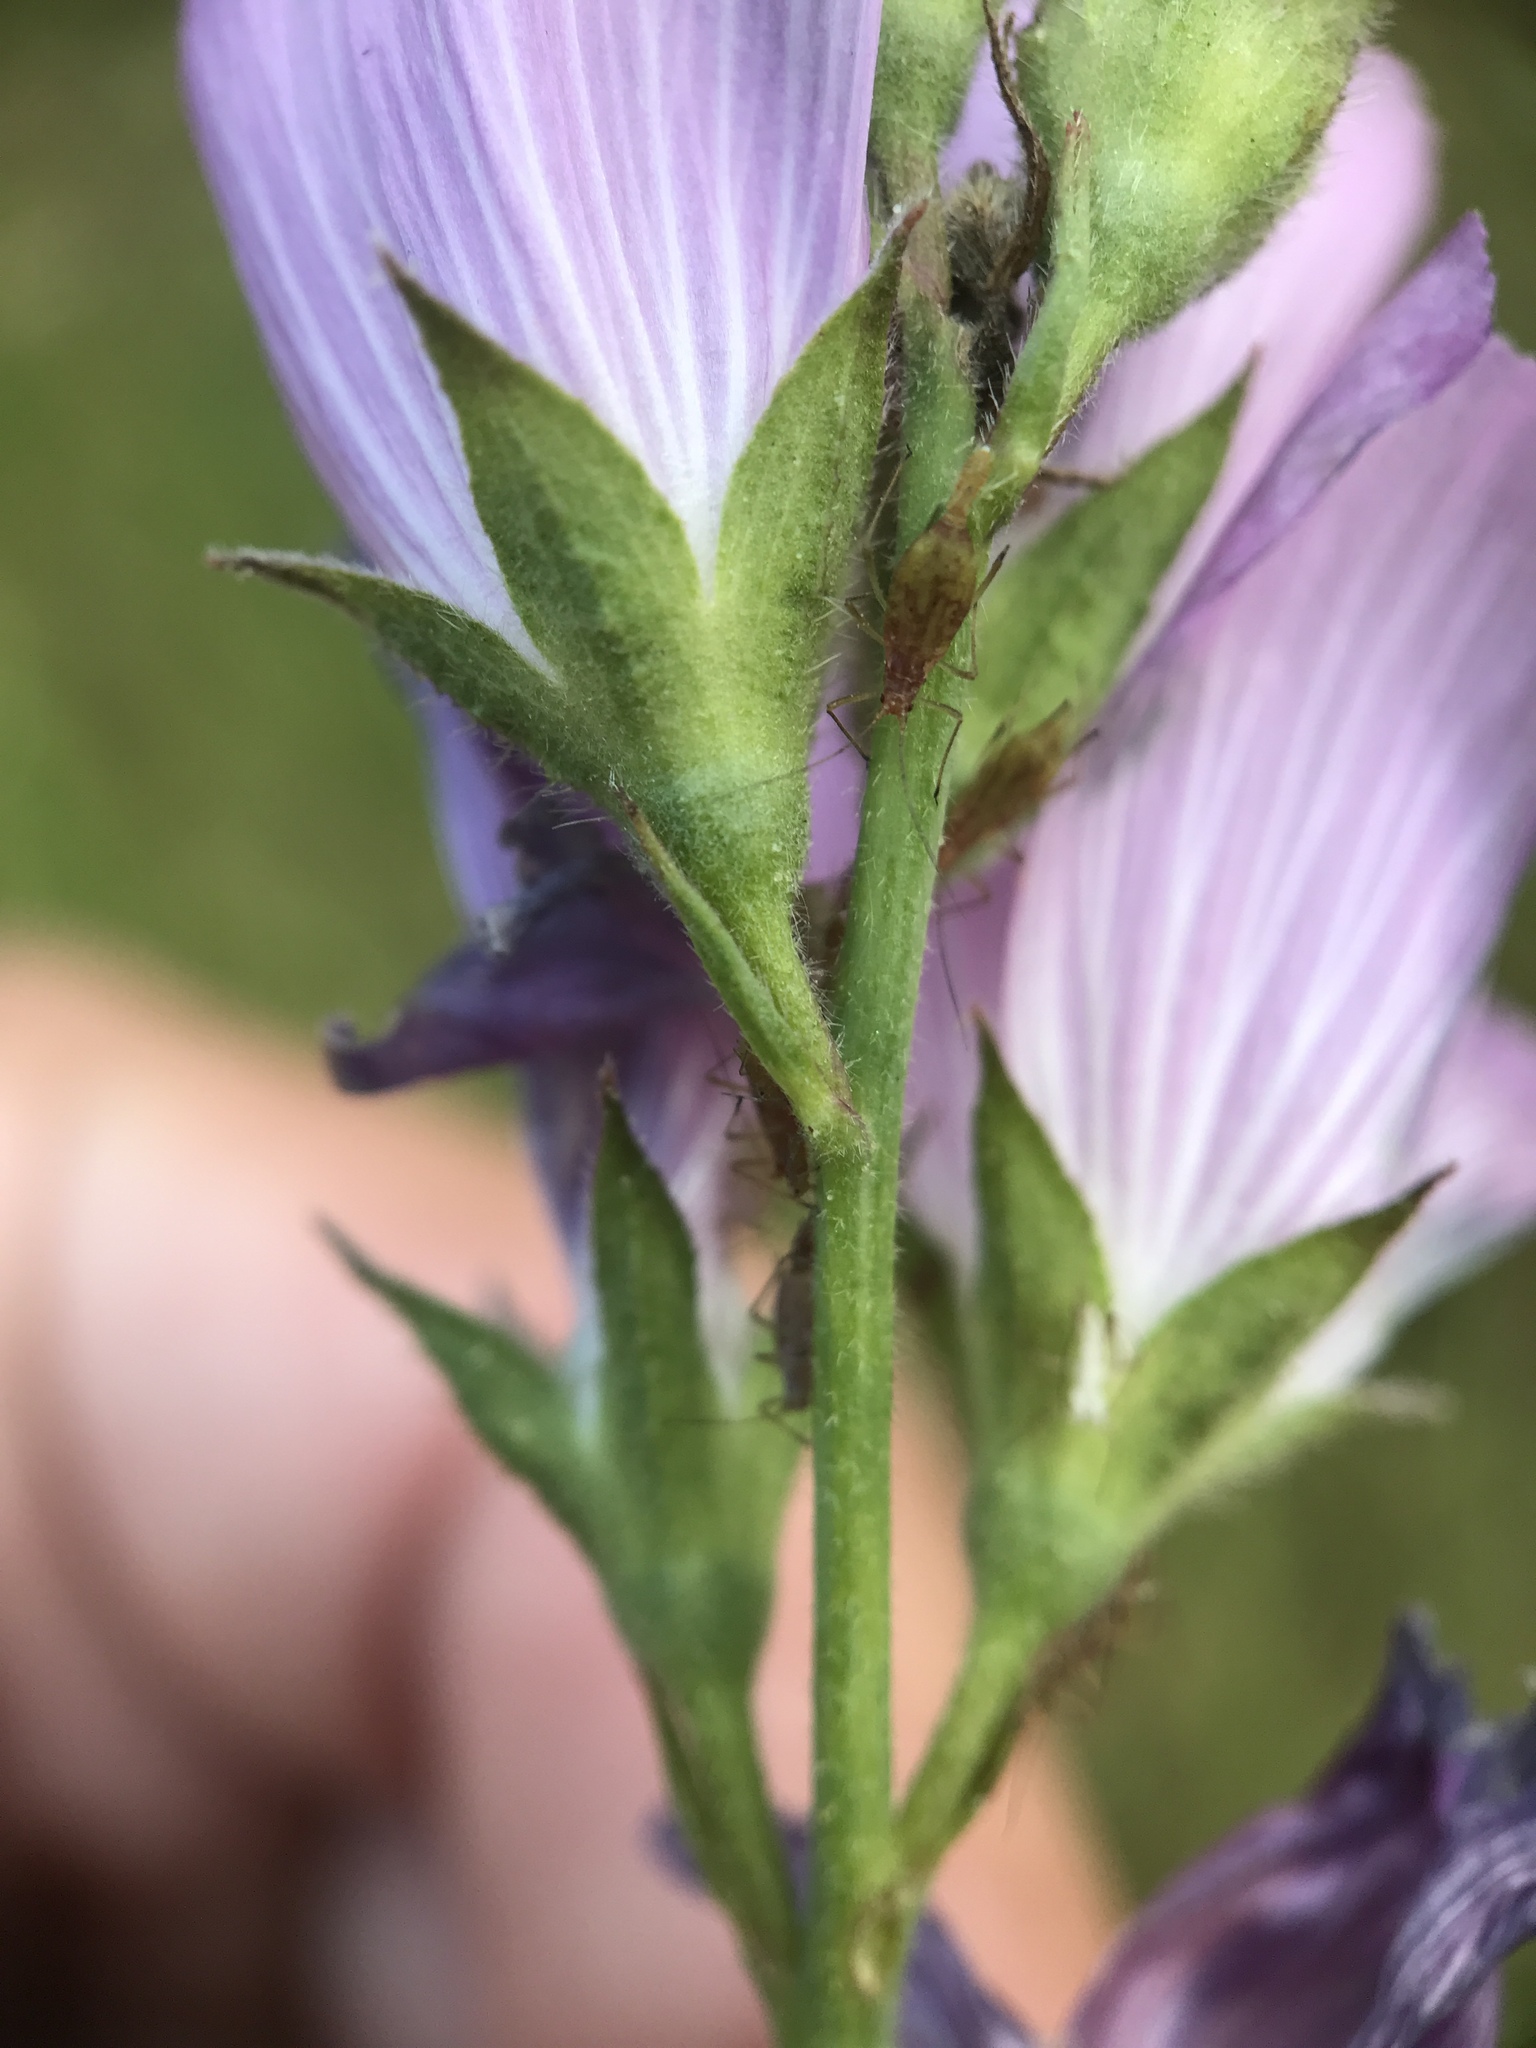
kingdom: Plantae
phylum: Tracheophyta
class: Magnoliopsida
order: Malvales
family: Malvaceae
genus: Sidalcea
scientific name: Sidalcea malviflora
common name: Greek mallow
